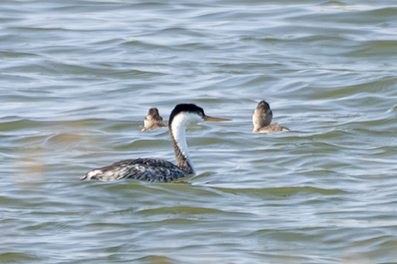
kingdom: Animalia
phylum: Chordata
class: Aves
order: Podicipediformes
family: Podicipedidae
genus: Aechmophorus
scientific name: Aechmophorus occidentalis
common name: Western grebe
